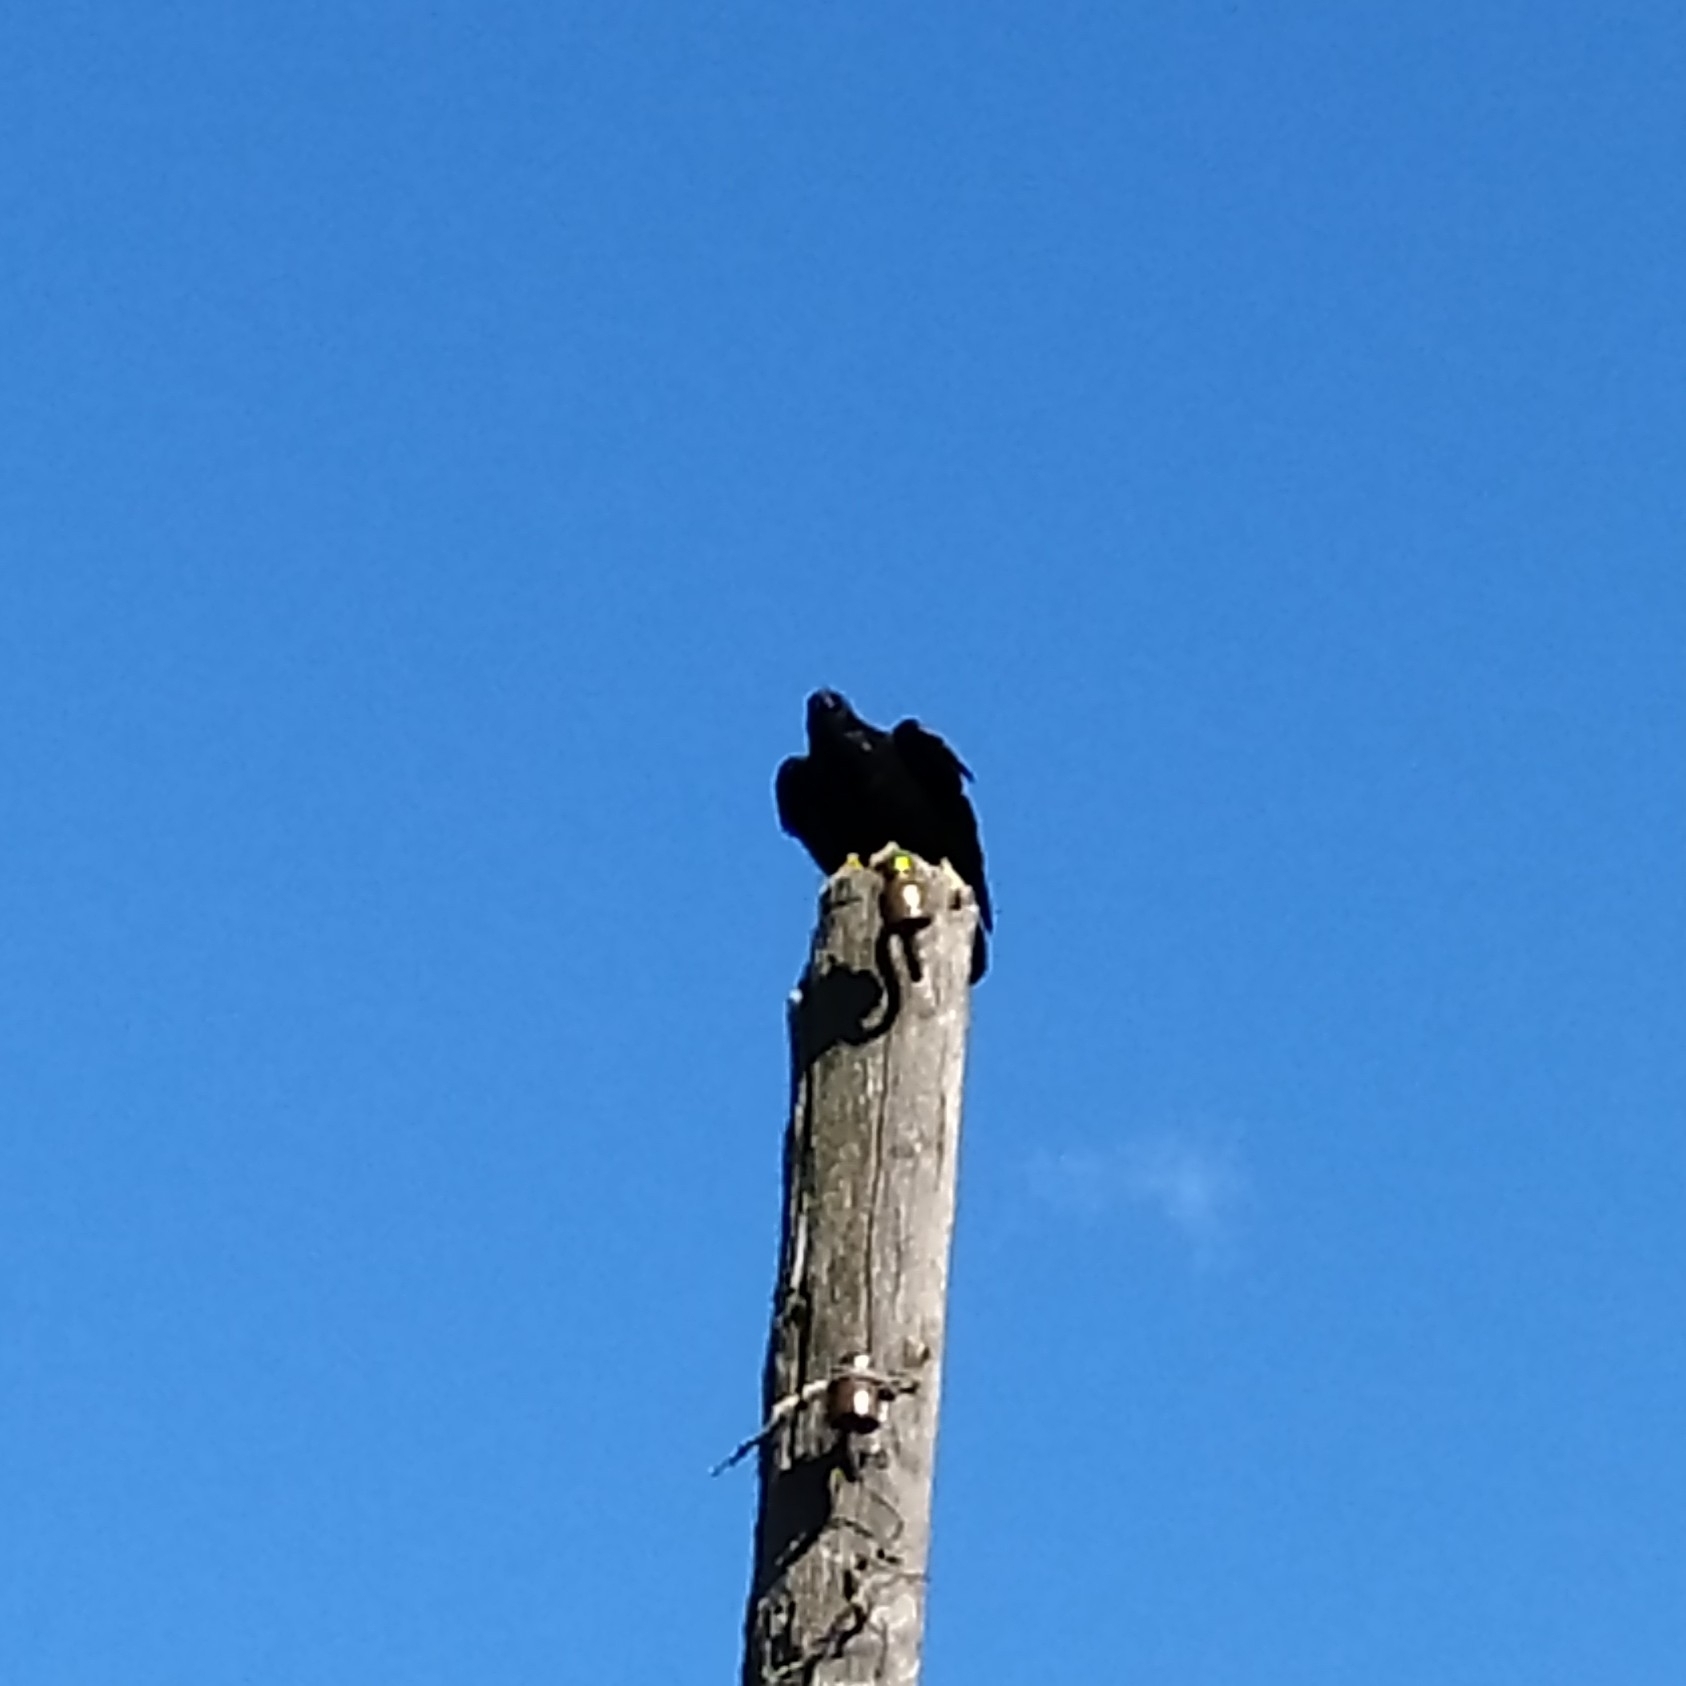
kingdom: Animalia
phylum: Chordata
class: Aves
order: Passeriformes
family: Corvidae
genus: Corvus
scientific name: Corvus corax
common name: Common raven
